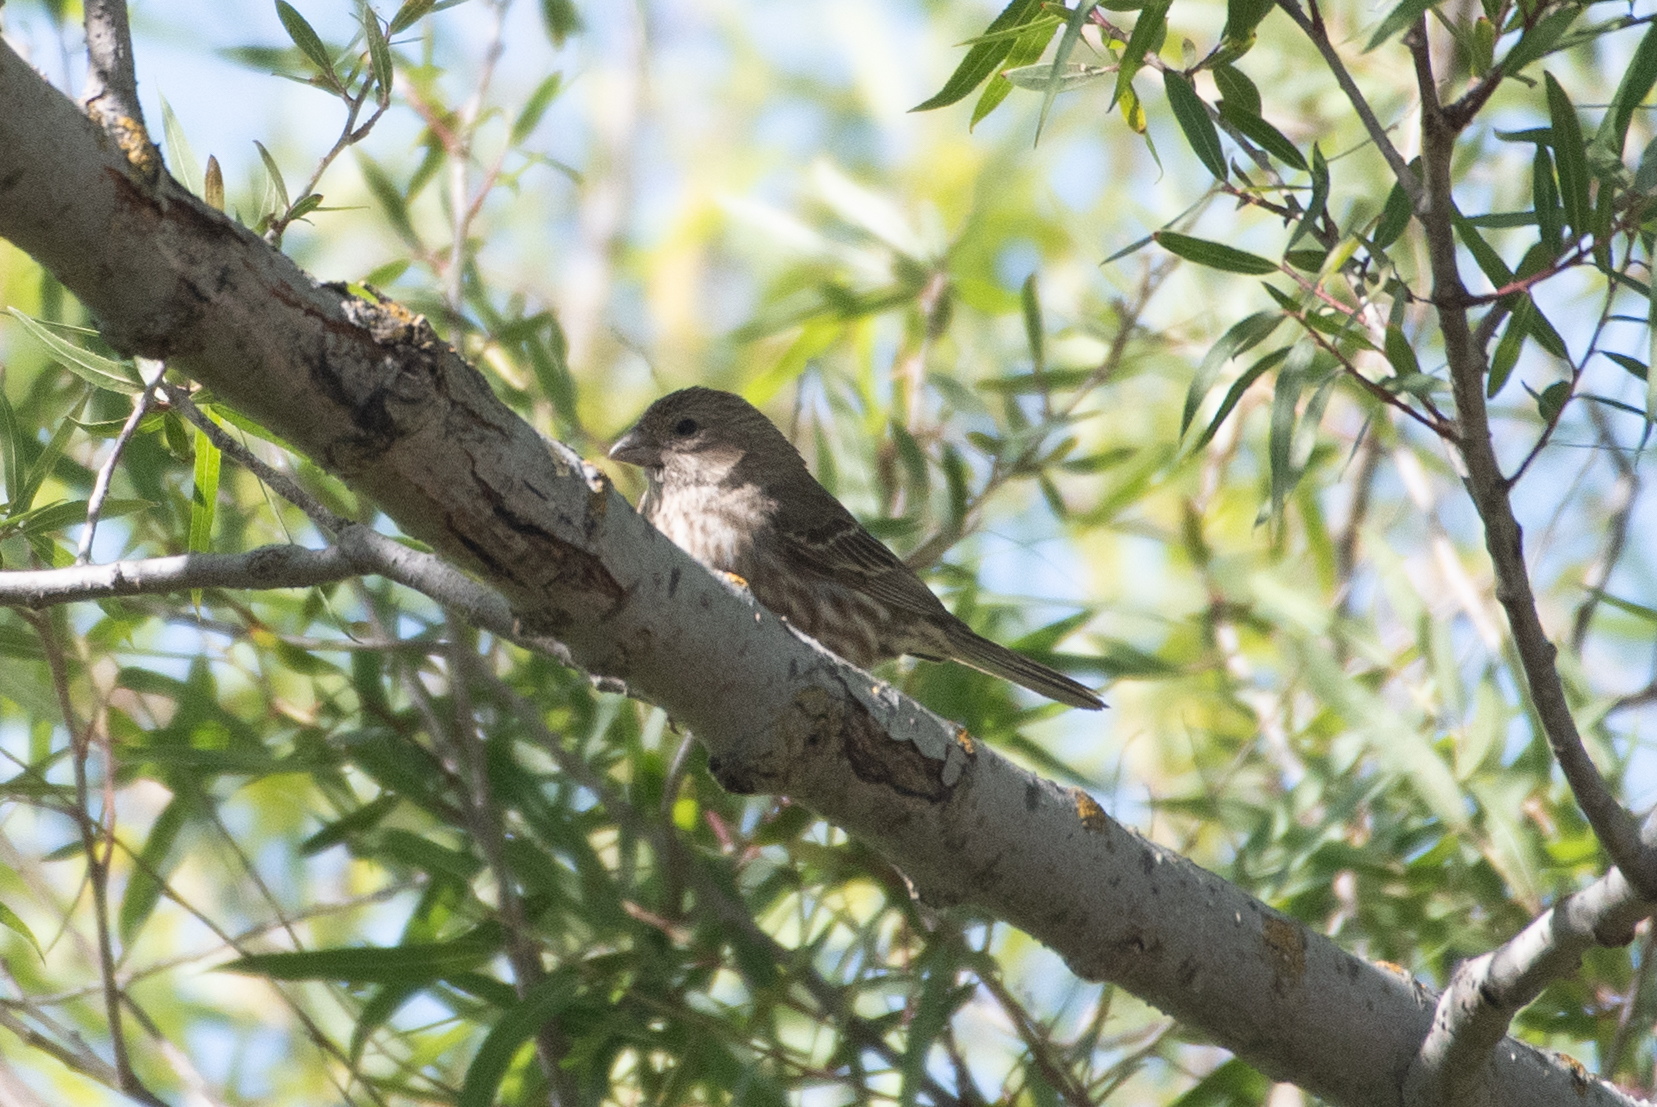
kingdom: Animalia
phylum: Chordata
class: Aves
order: Passeriformes
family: Fringillidae
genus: Haemorhous
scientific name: Haemorhous mexicanus
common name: House finch
